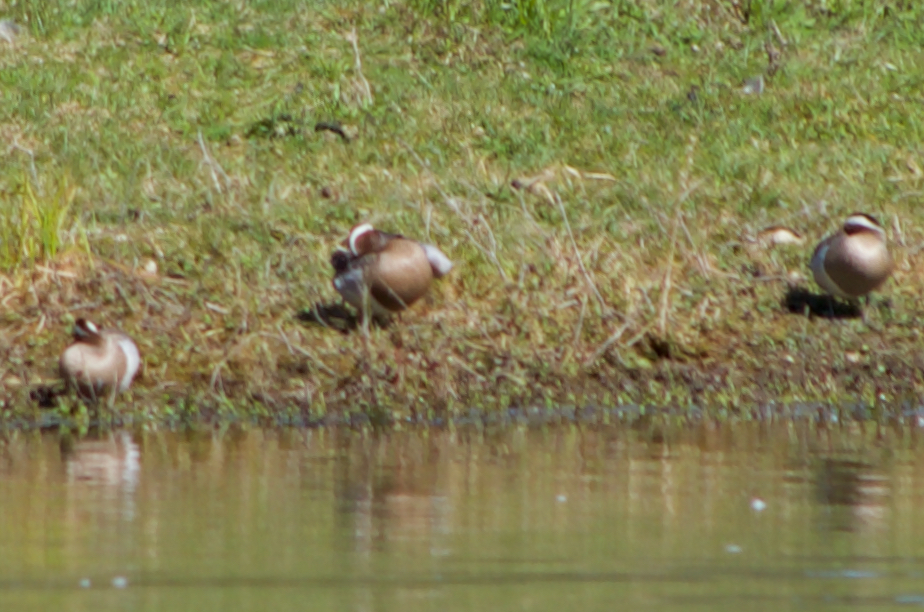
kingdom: Animalia
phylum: Chordata
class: Aves
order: Anseriformes
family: Anatidae
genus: Spatula
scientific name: Spatula querquedula
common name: Garganey
